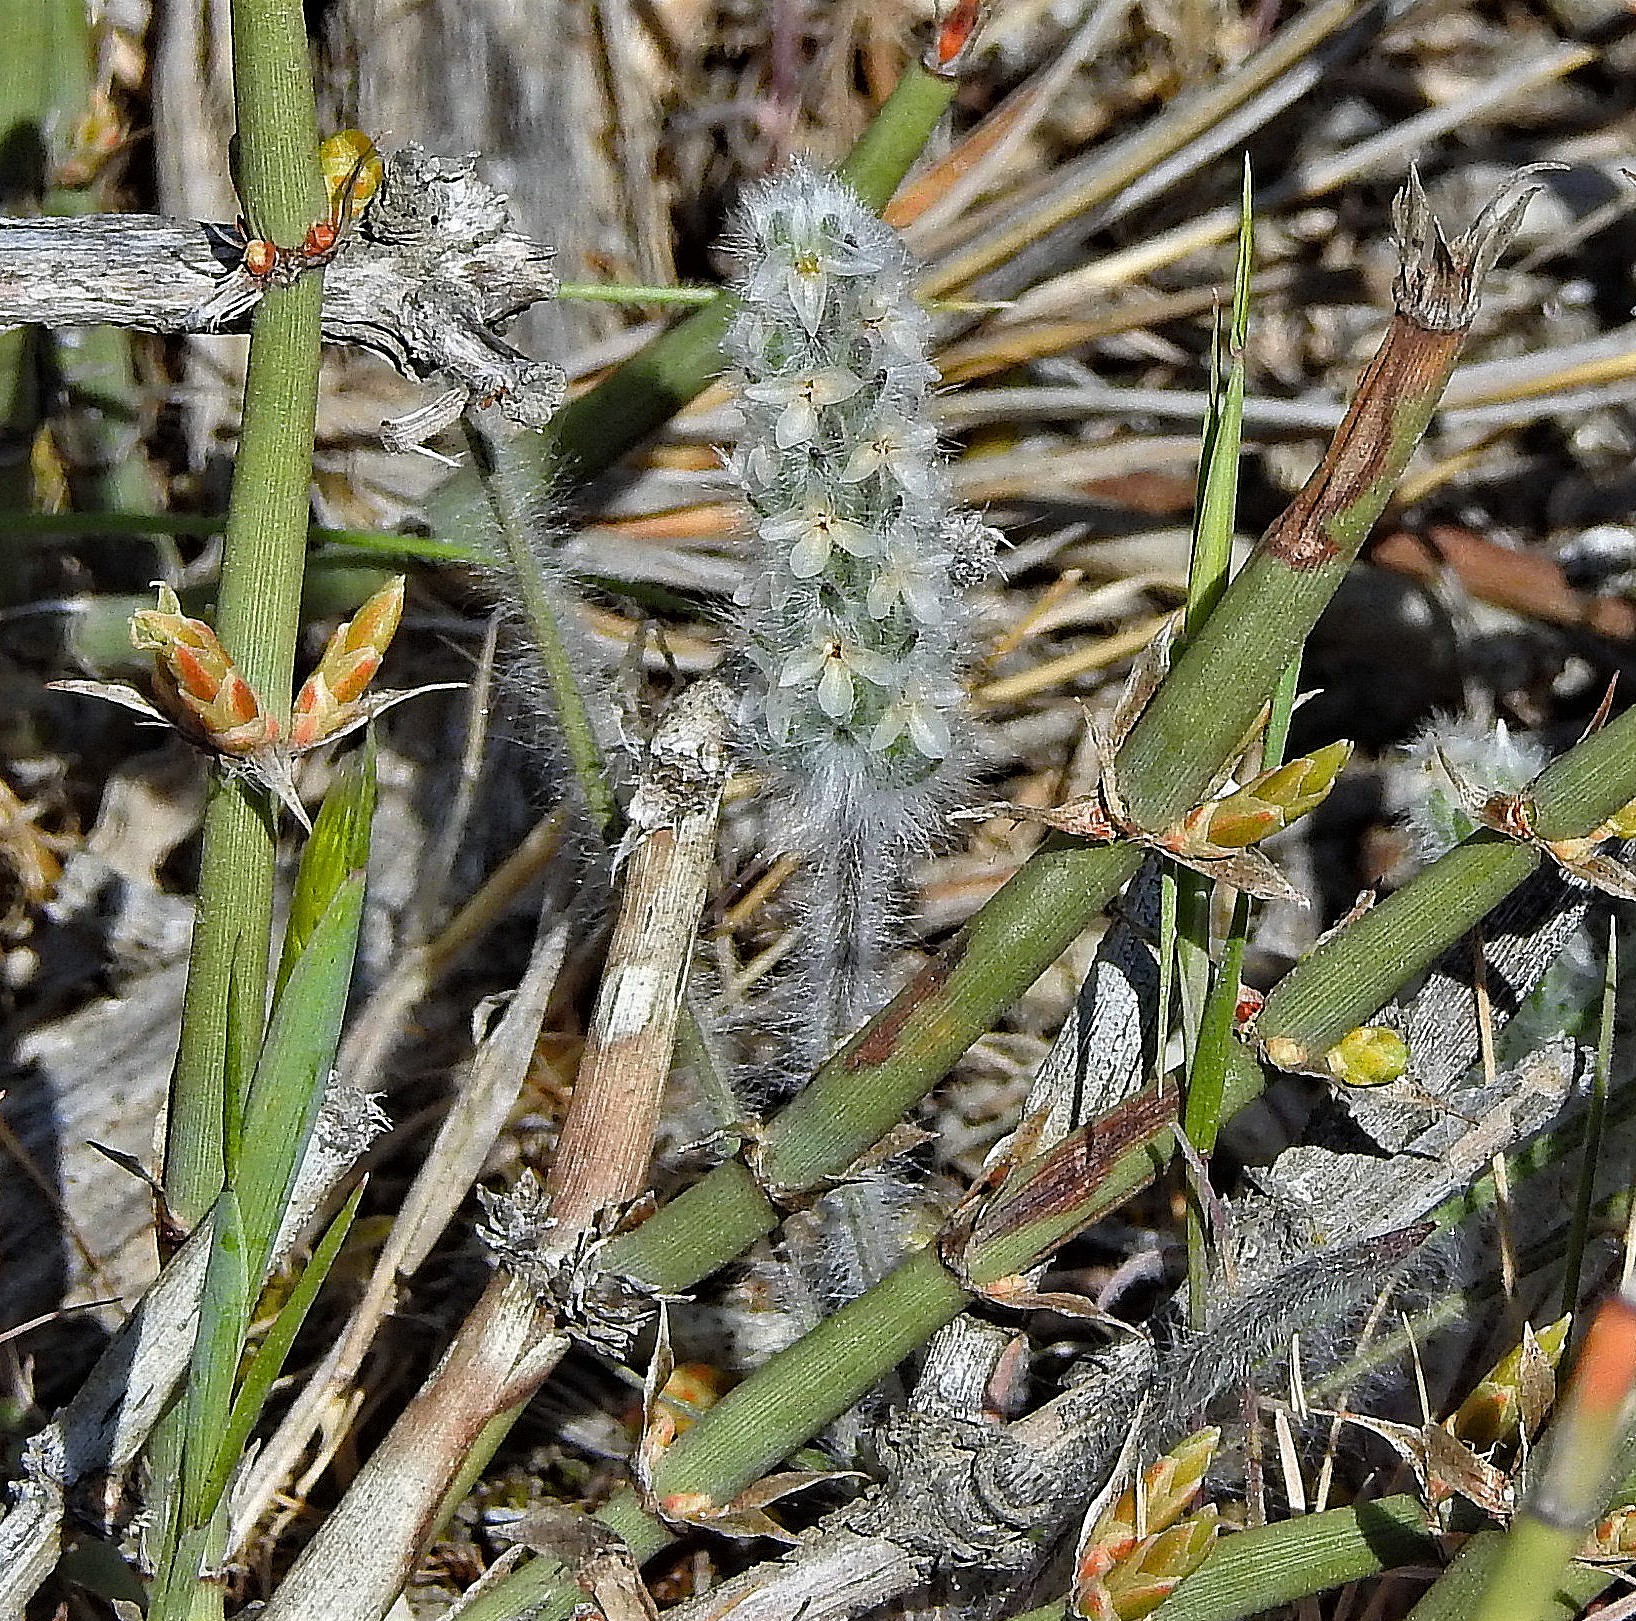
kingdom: Plantae
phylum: Tracheophyta
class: Magnoliopsida
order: Lamiales
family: Plantaginaceae
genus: Plantago
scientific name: Plantago patagonica
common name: Patagonia indian-wheat
